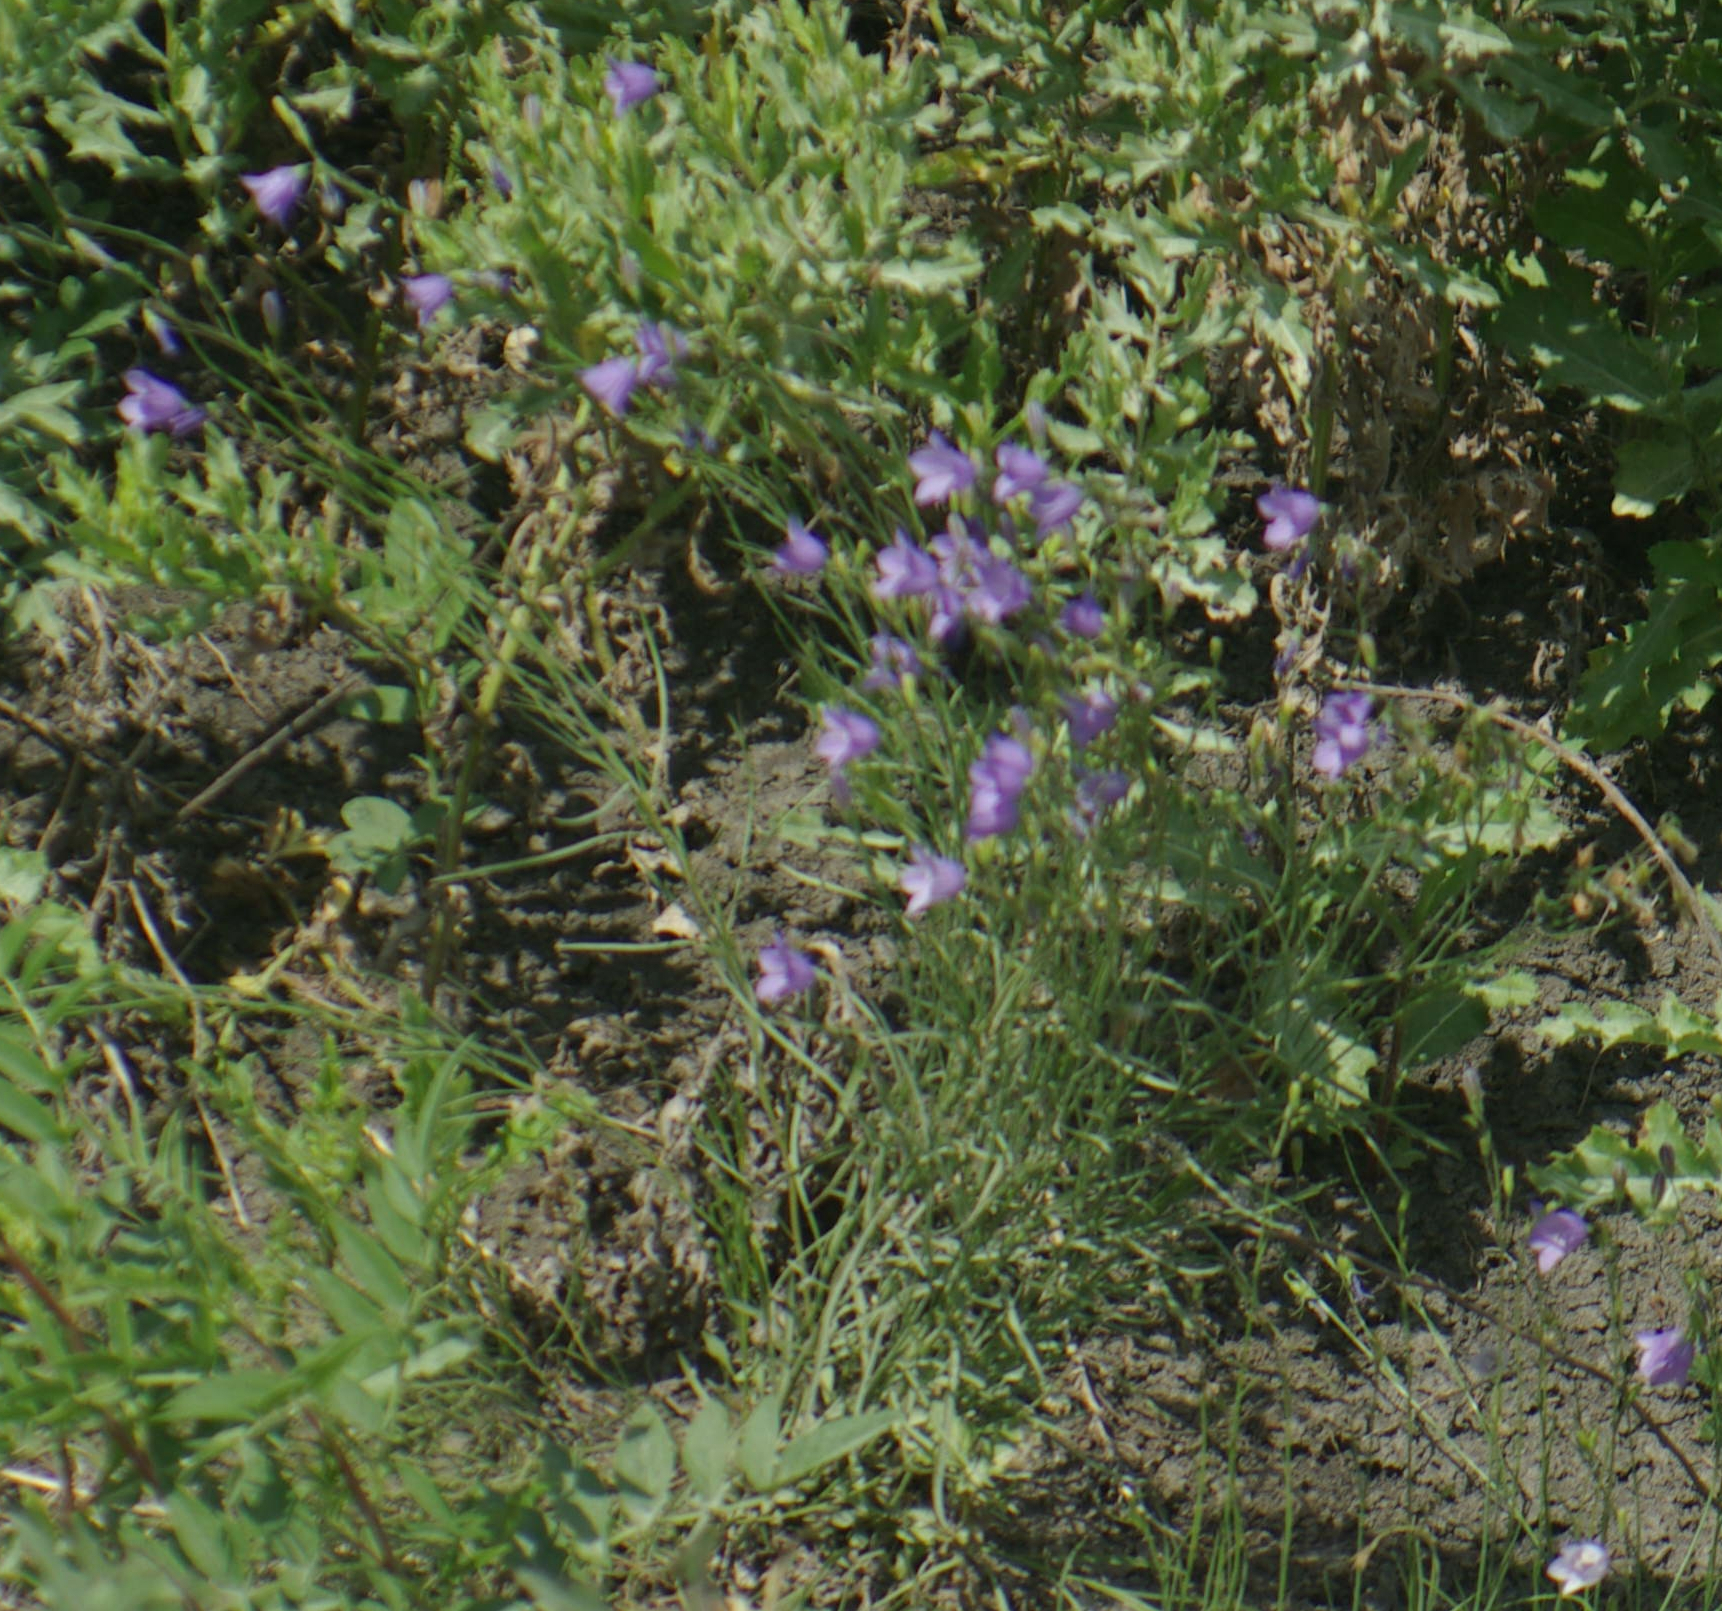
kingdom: Plantae
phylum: Tracheophyta
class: Magnoliopsida
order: Asterales
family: Campanulaceae
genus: Campanula
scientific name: Campanula petiolata
